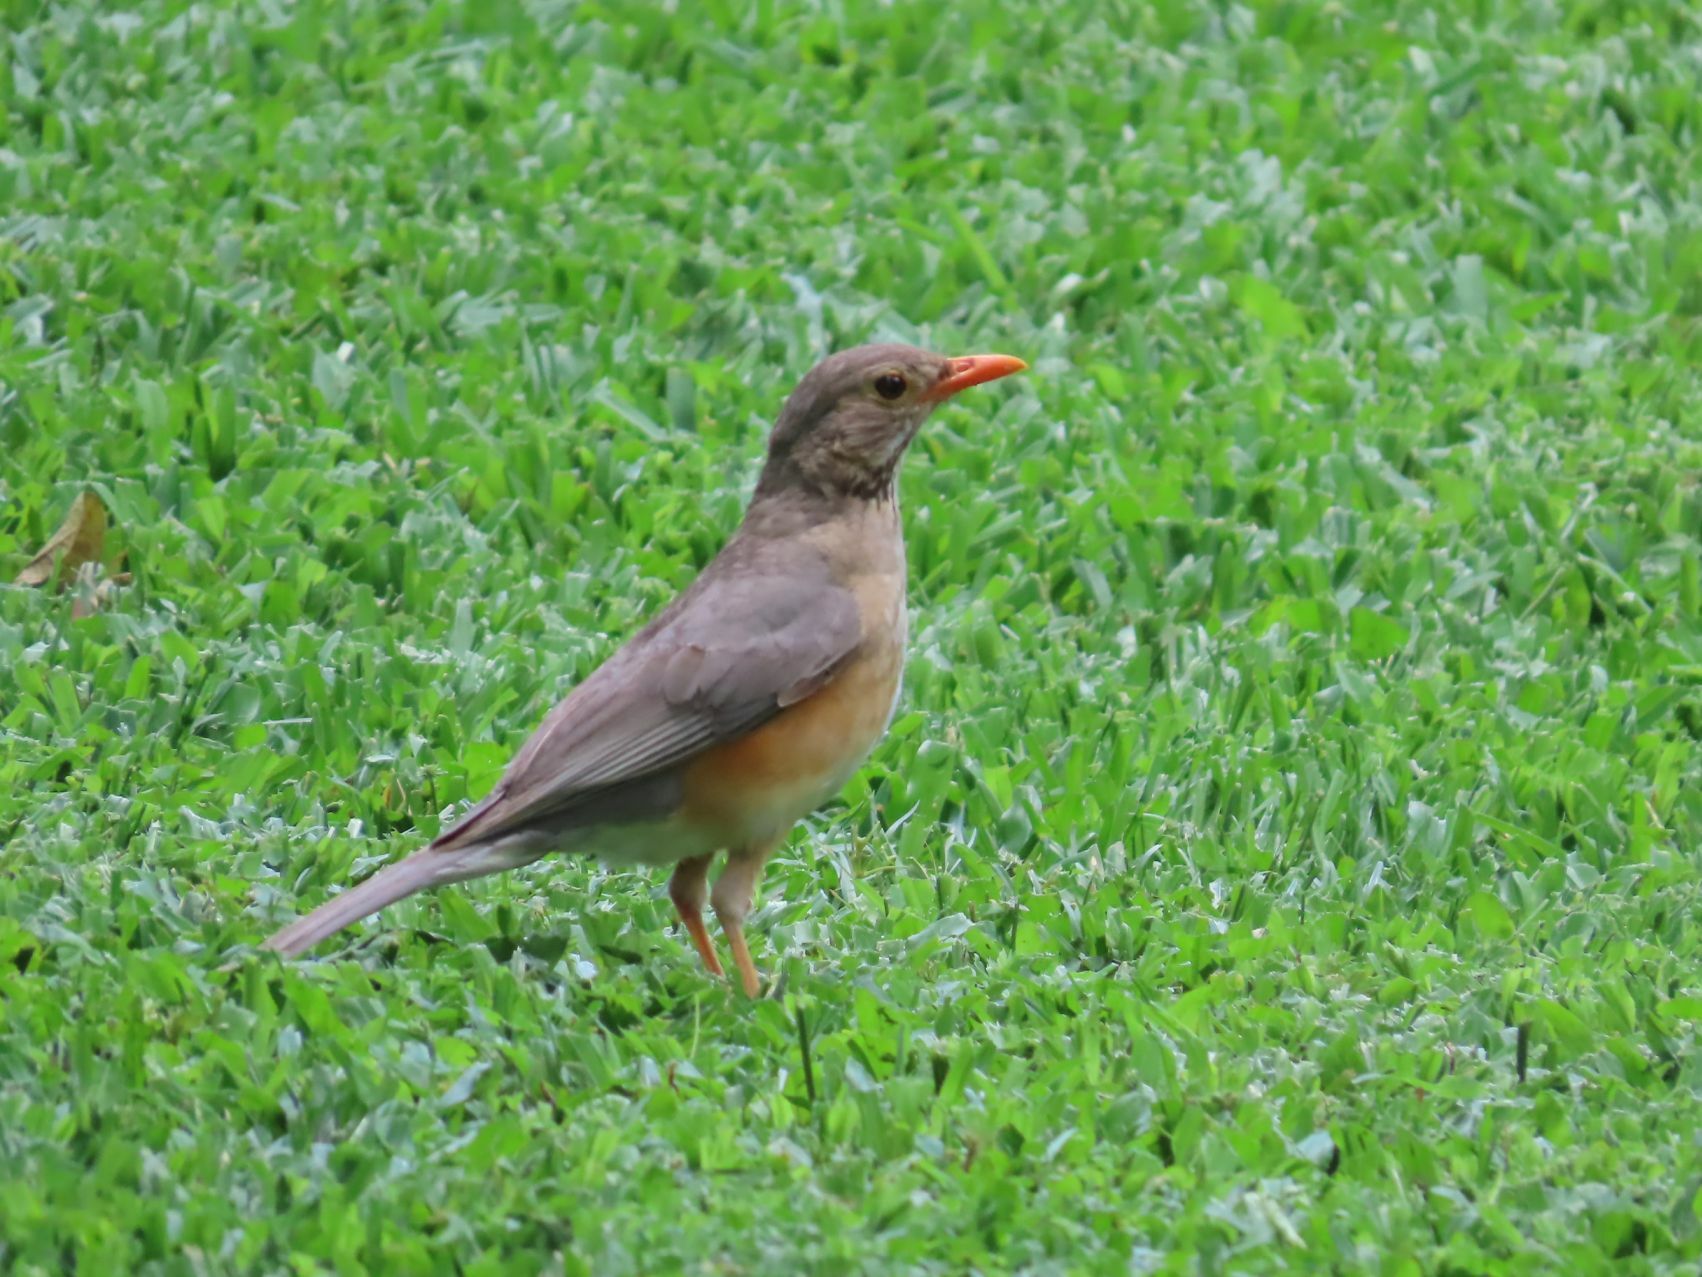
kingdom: Animalia
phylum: Chordata
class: Aves
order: Passeriformes
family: Turdidae
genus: Turdus
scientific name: Turdus libonyana
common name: Kurrichane thrush
